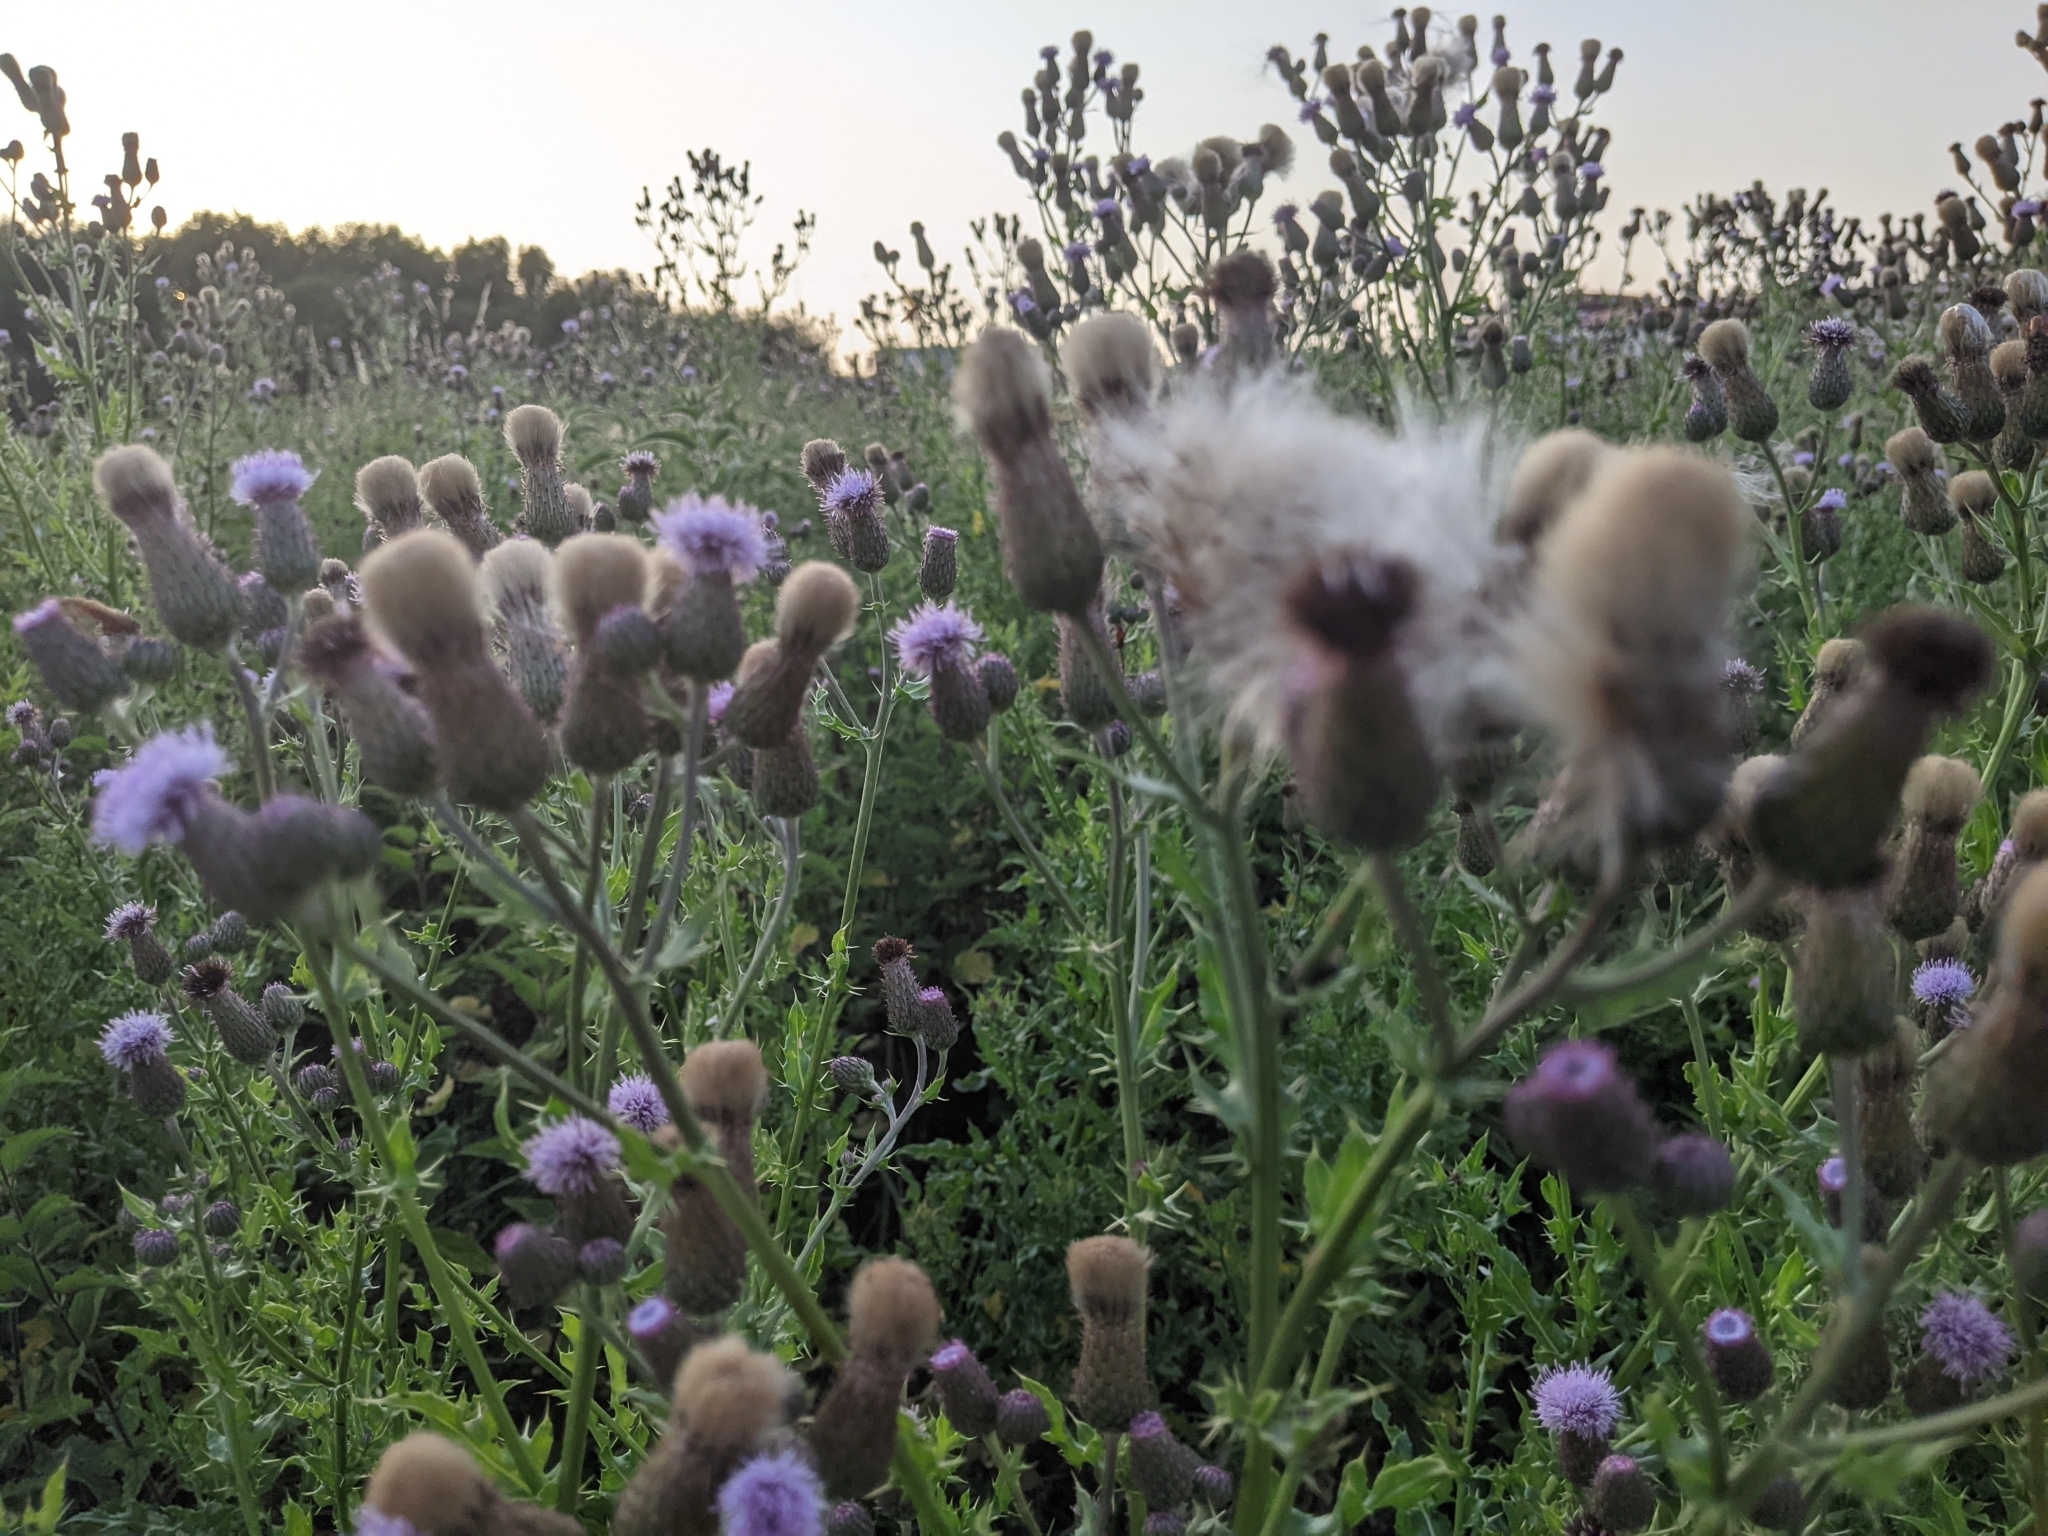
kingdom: Plantae
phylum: Tracheophyta
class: Magnoliopsida
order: Asterales
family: Asteraceae
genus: Cirsium
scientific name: Cirsium arvense
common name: Creeping thistle
